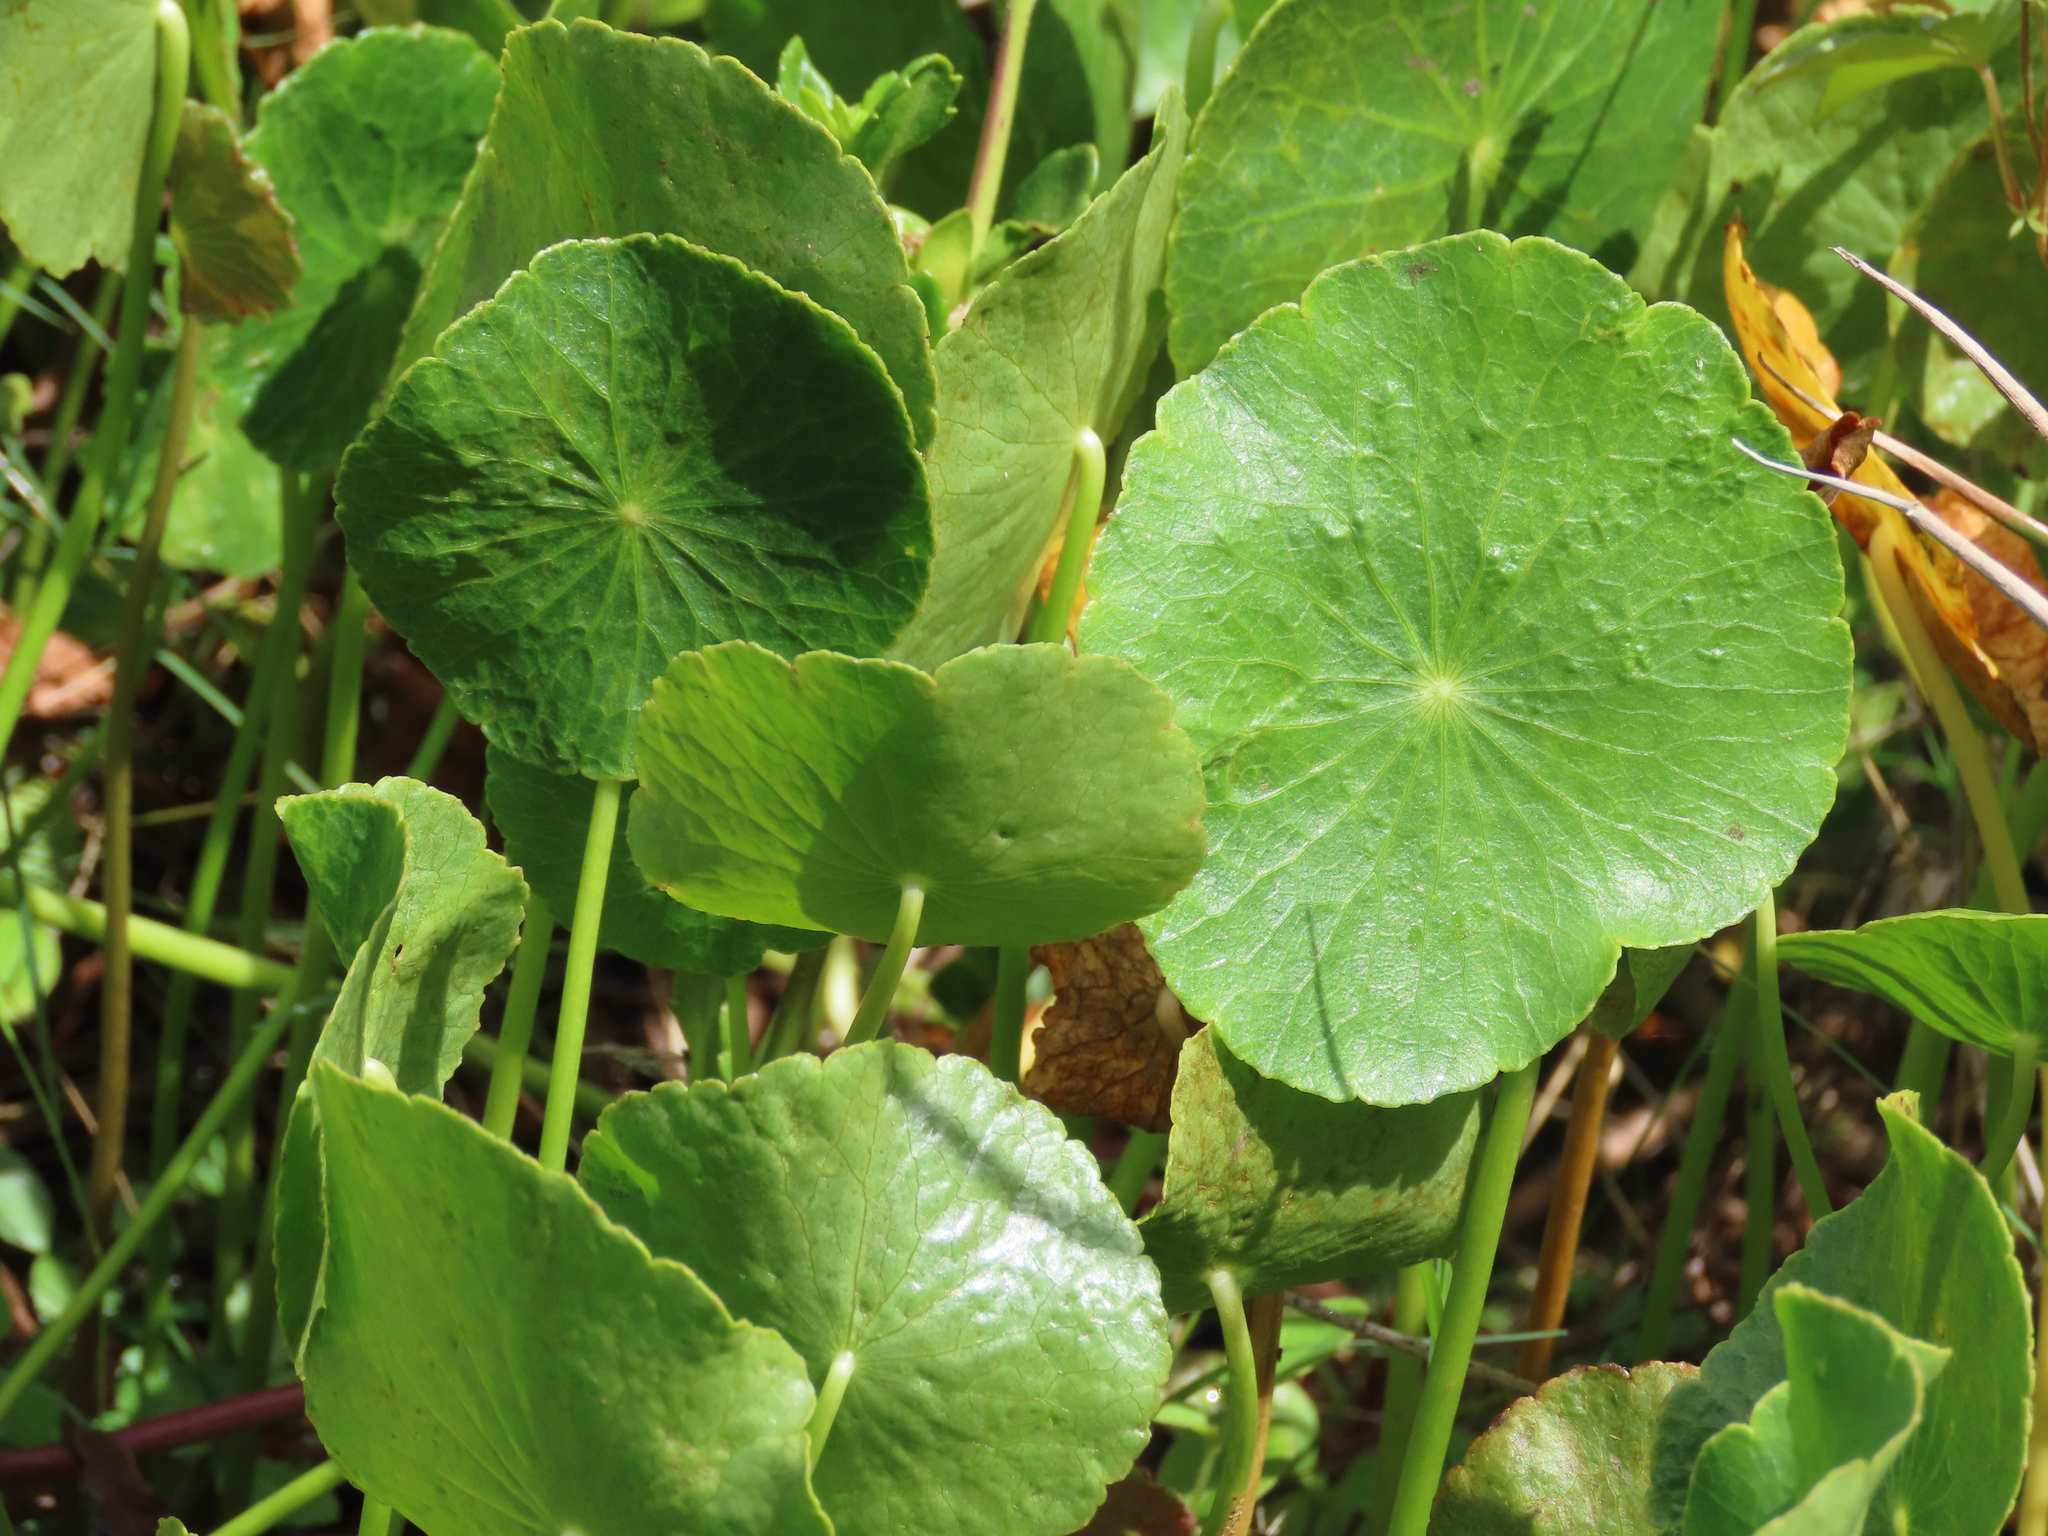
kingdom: Plantae
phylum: Tracheophyta
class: Magnoliopsida
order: Apiales
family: Araliaceae
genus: Hydrocotyle
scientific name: Hydrocotyle bonariensis
